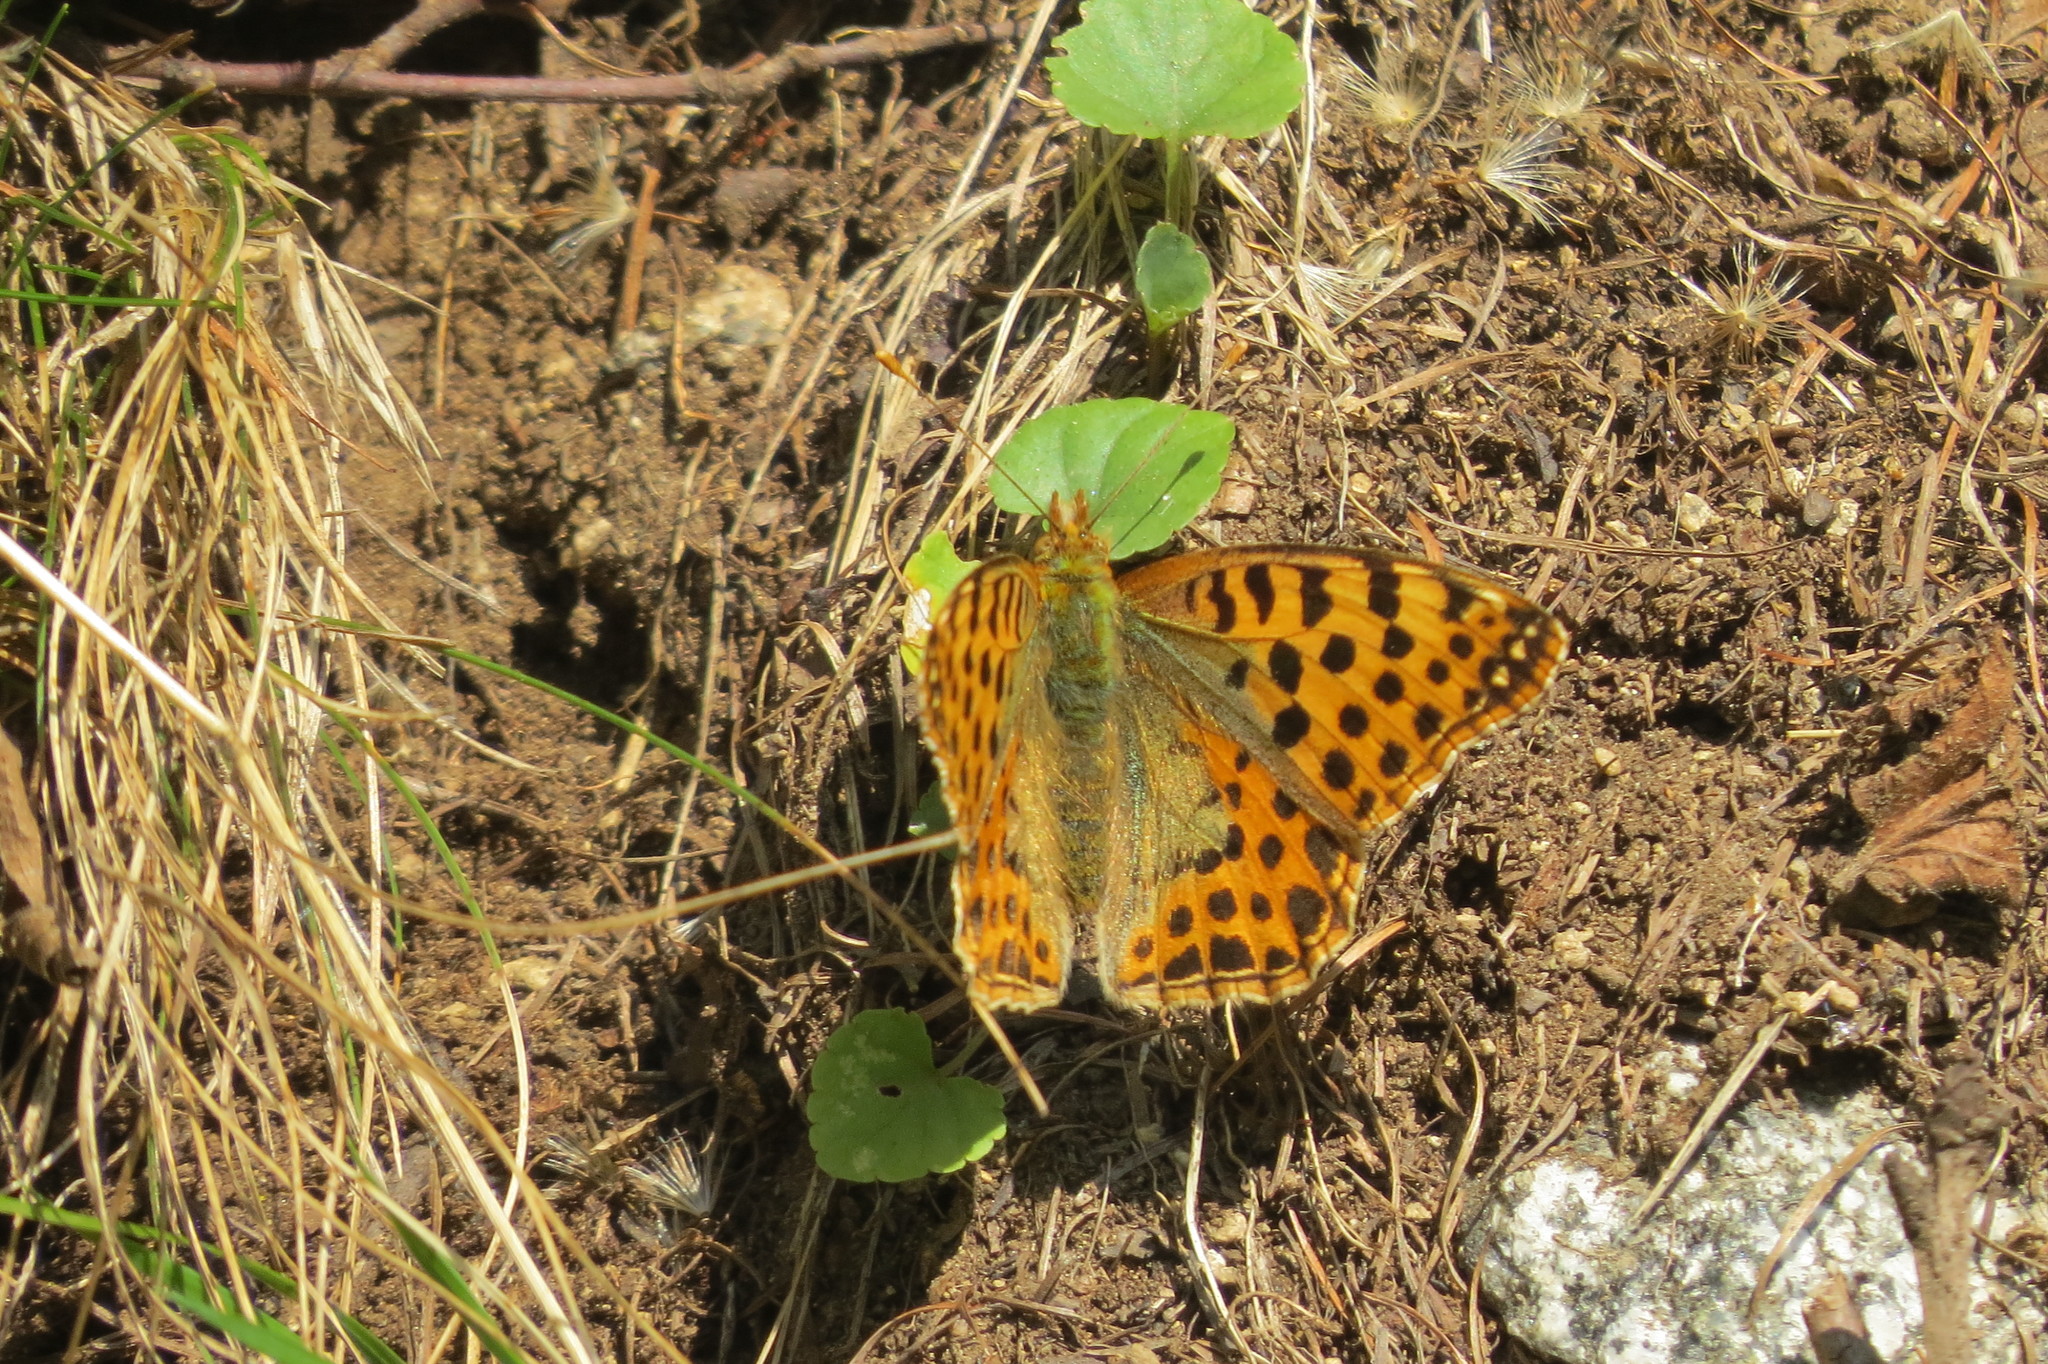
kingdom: Animalia
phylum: Arthropoda
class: Insecta
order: Lepidoptera
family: Nymphalidae
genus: Issoria
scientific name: Issoria lathonia
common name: Queen of spain fritillary
